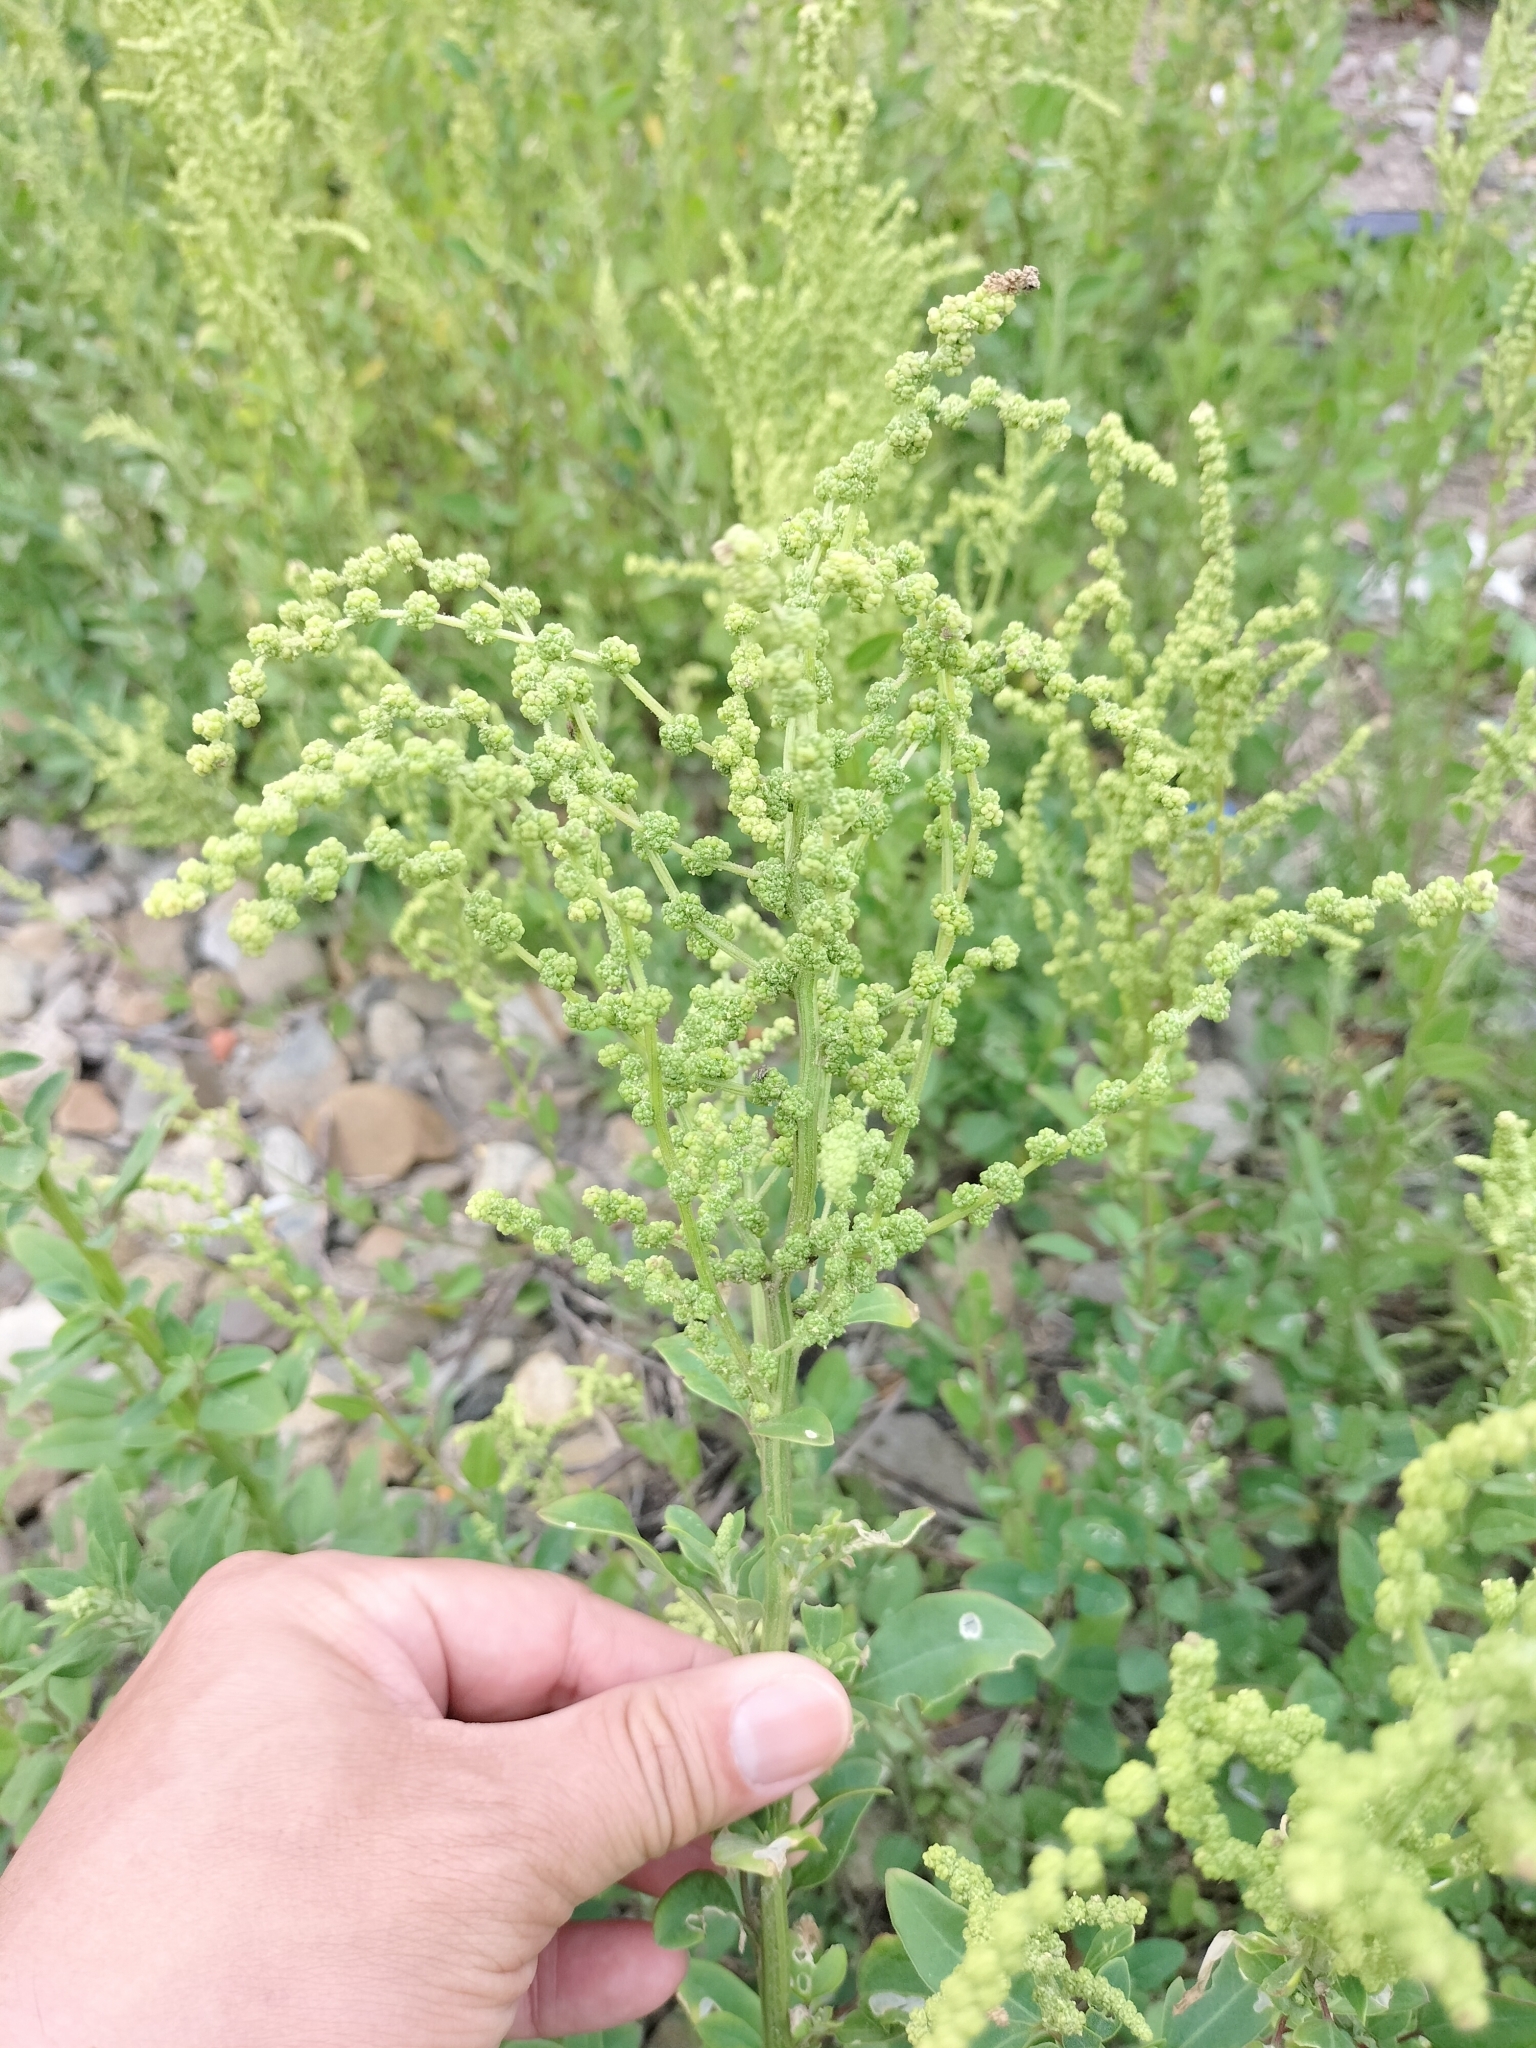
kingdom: Plantae
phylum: Tracheophyta
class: Magnoliopsida
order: Caryophyllales
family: Amaranthaceae
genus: Chenopodium
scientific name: Chenopodium acuminatum
